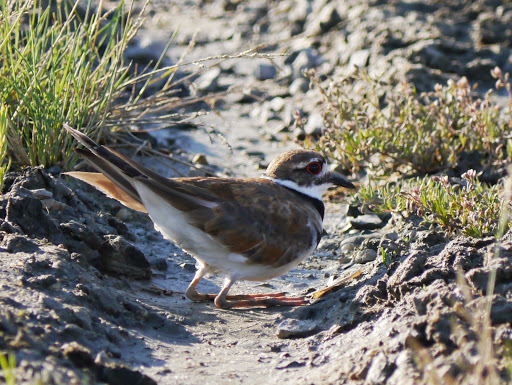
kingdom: Animalia
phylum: Chordata
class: Aves
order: Charadriiformes
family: Charadriidae
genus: Charadrius
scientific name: Charadrius vociferus
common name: Killdeer
